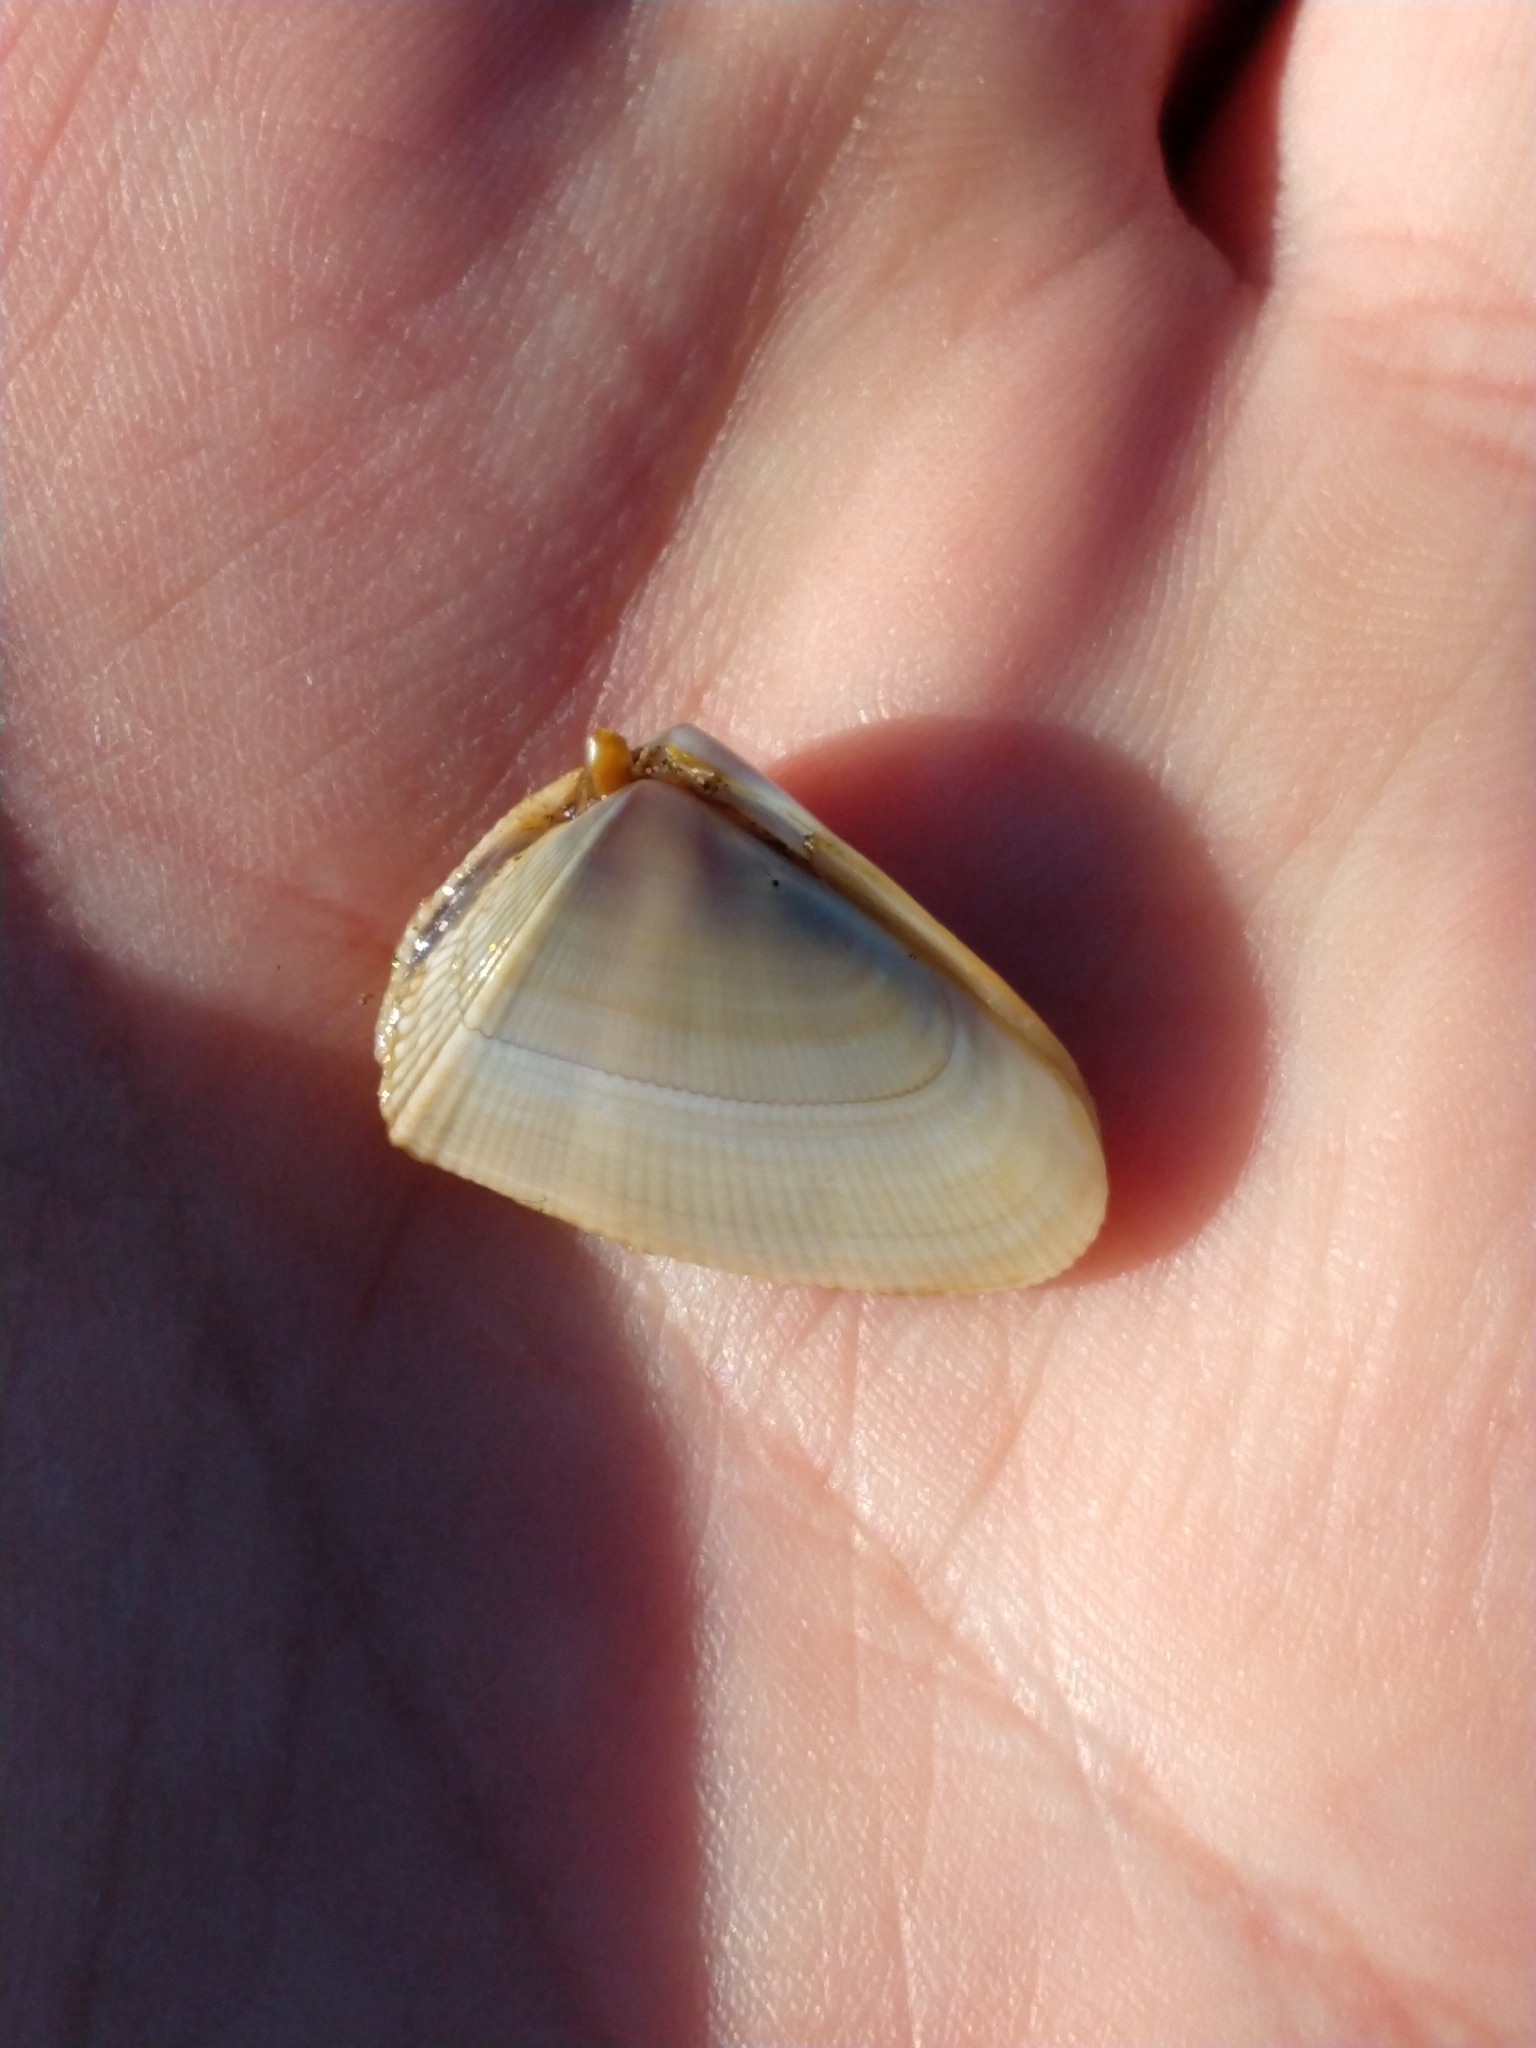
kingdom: Animalia
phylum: Mollusca
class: Bivalvia
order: Cardiida
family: Donacidae
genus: Donax
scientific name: Donax hanleyanus
